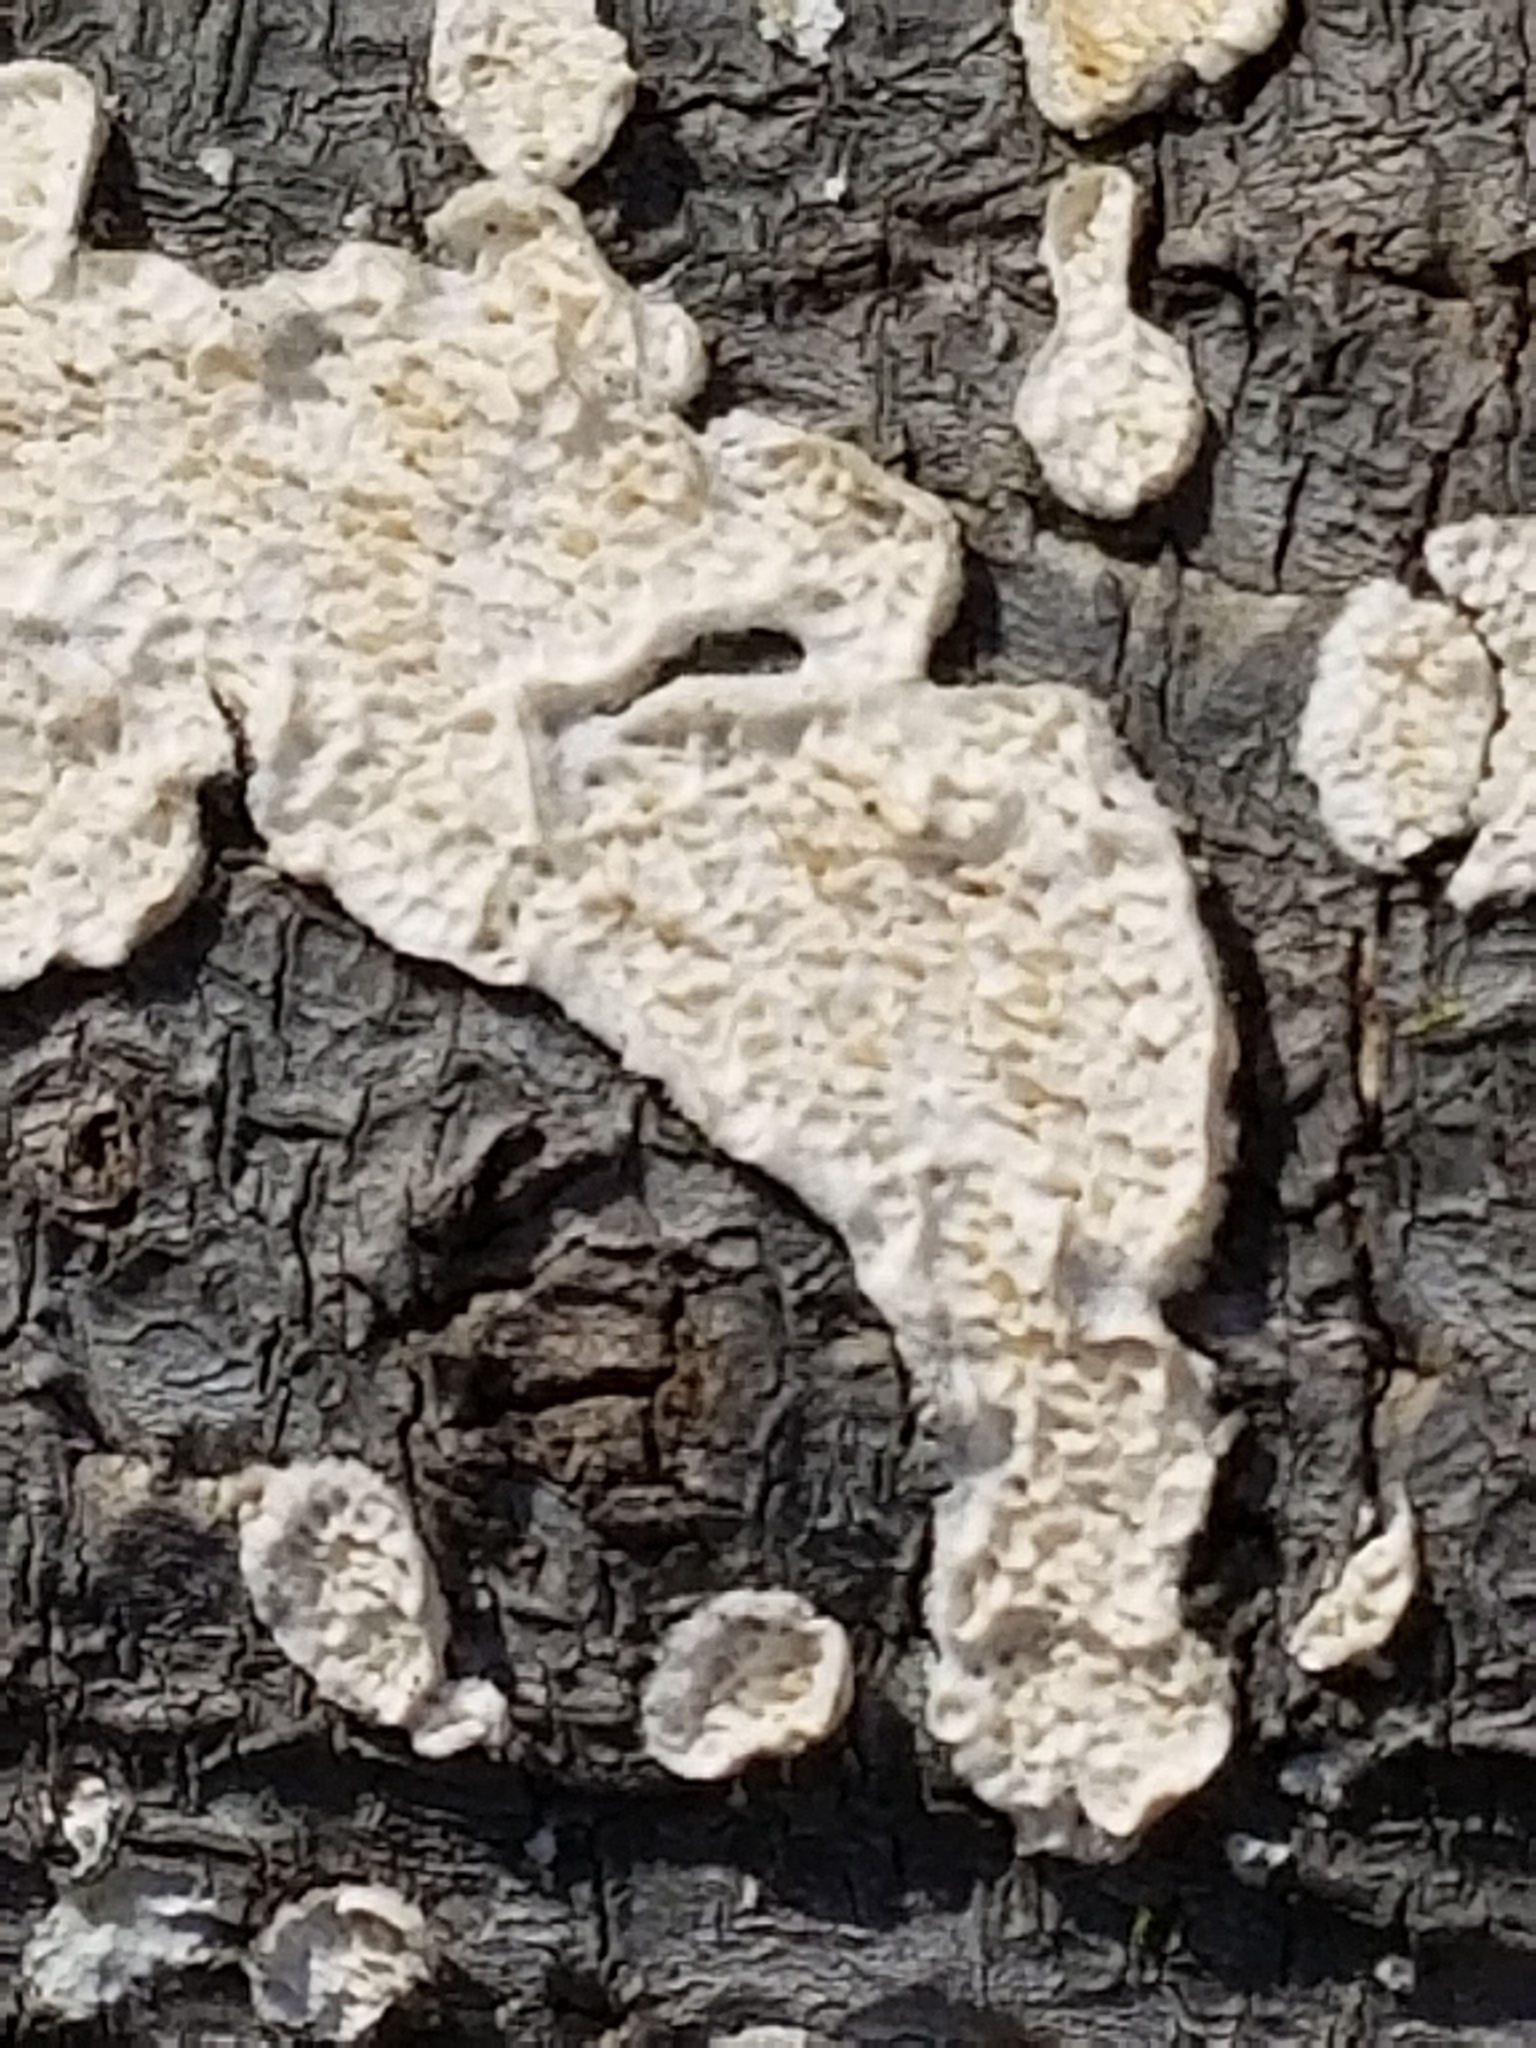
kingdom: Fungi
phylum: Basidiomycota
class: Agaricomycetes
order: Polyporales
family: Irpicaceae
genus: Irpex
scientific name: Irpex lacteus
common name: Milk-white toothed polypore
